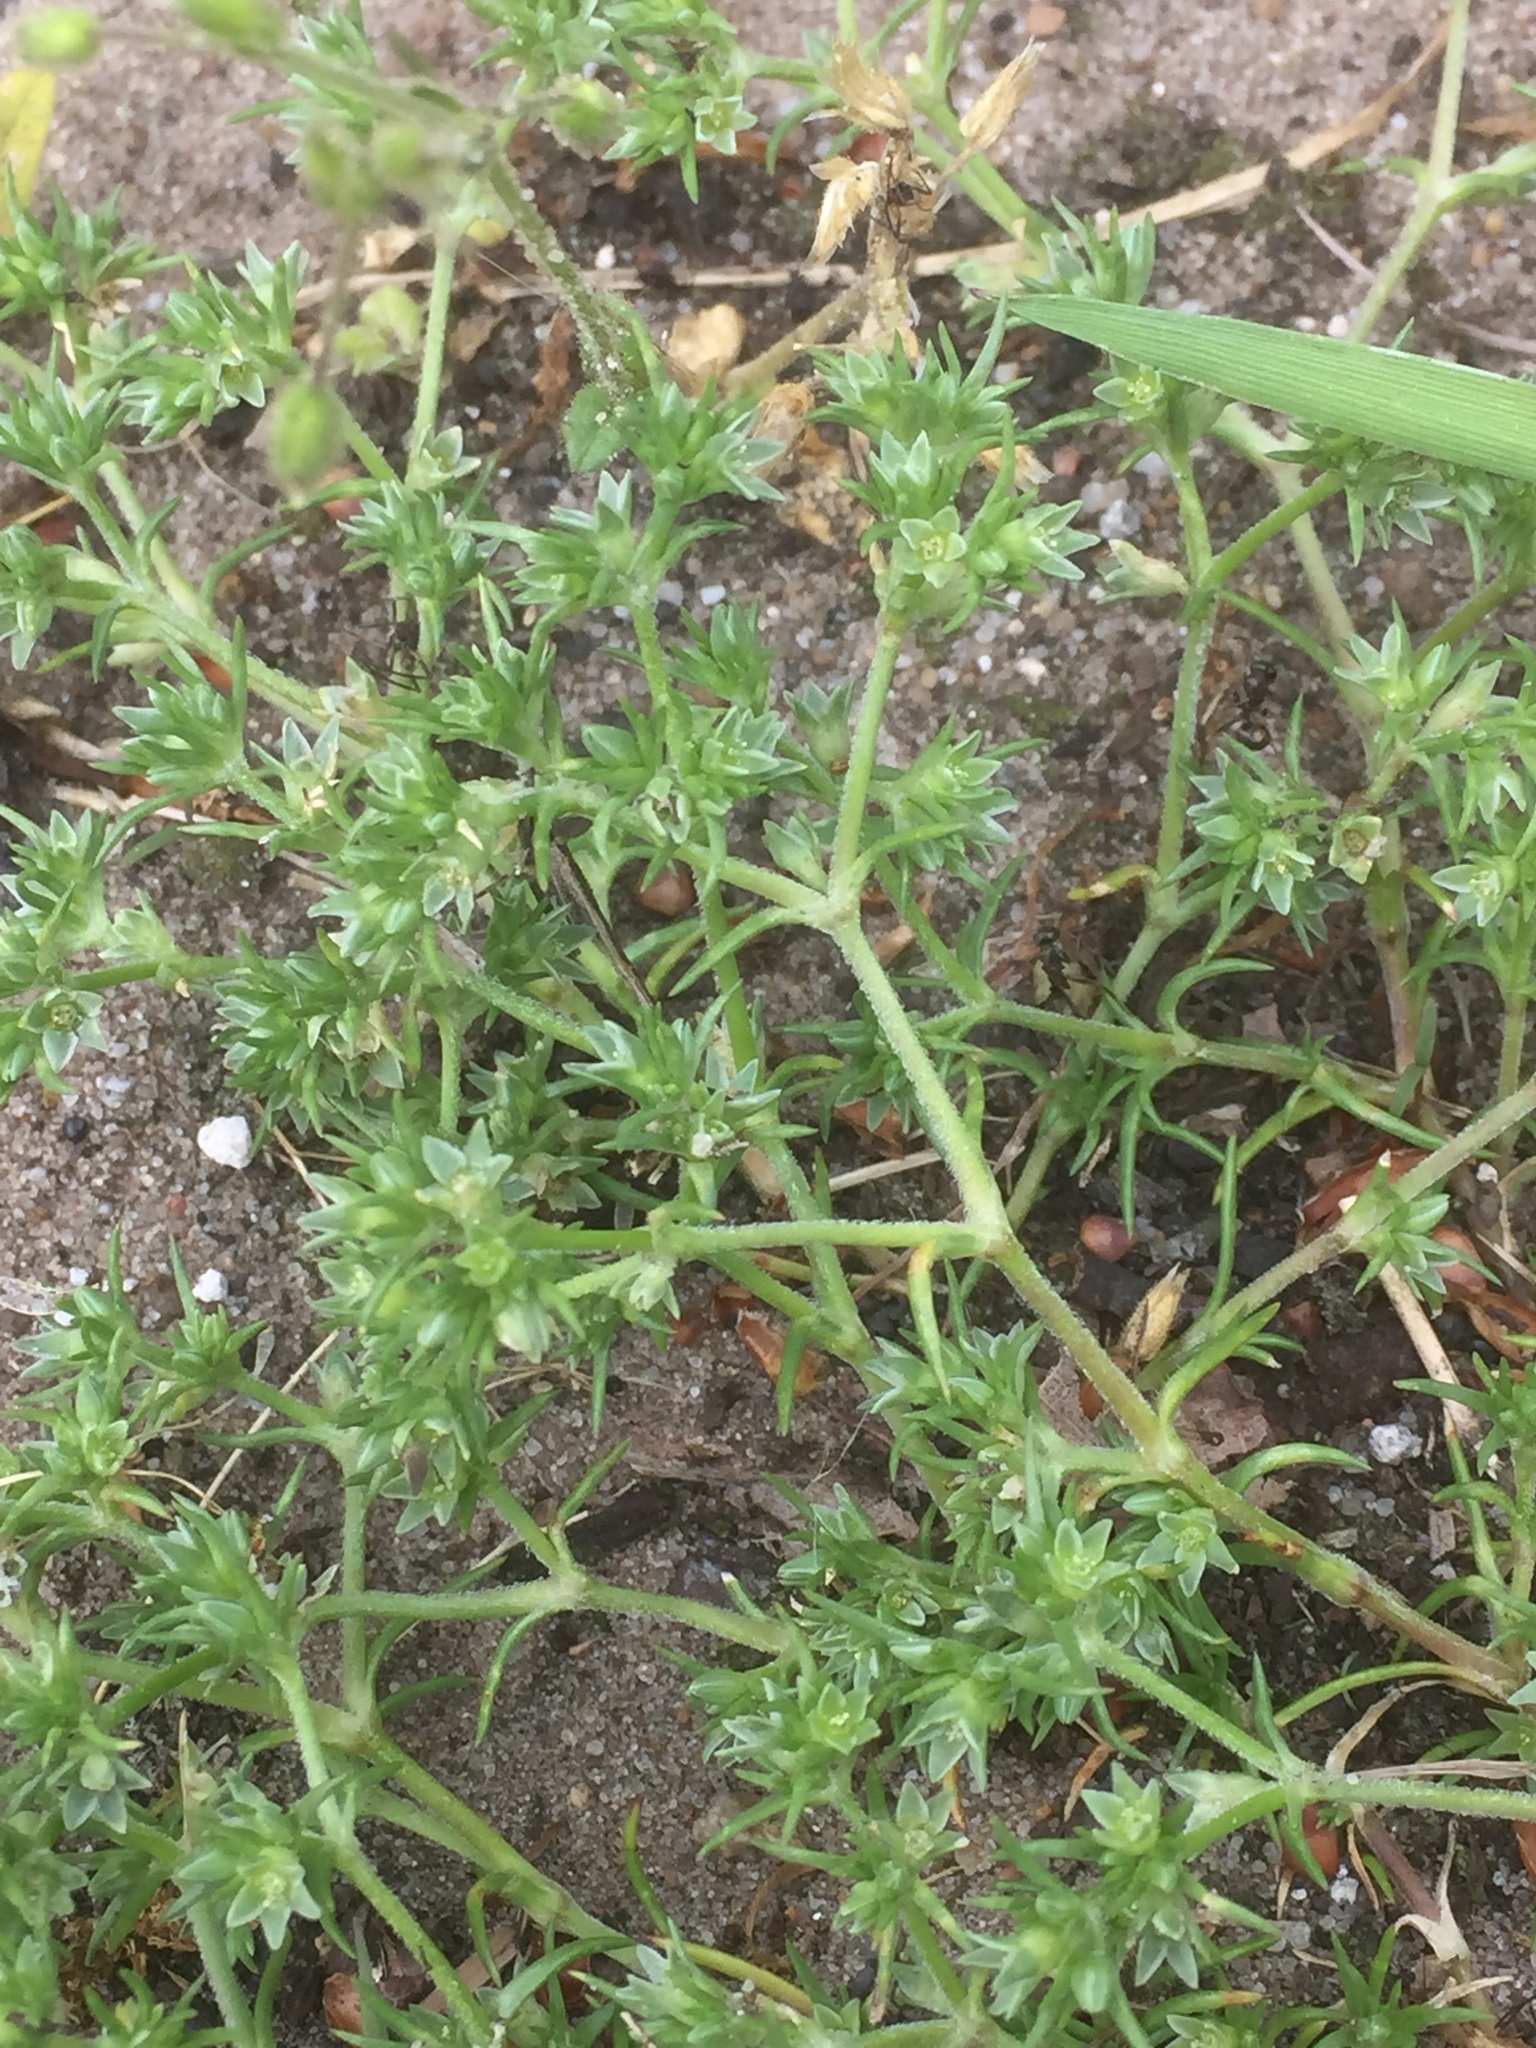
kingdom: Plantae
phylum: Tracheophyta
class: Magnoliopsida
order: Caryophyllales
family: Caryophyllaceae
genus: Scleranthus
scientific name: Scleranthus annuus
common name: Annual knawel
